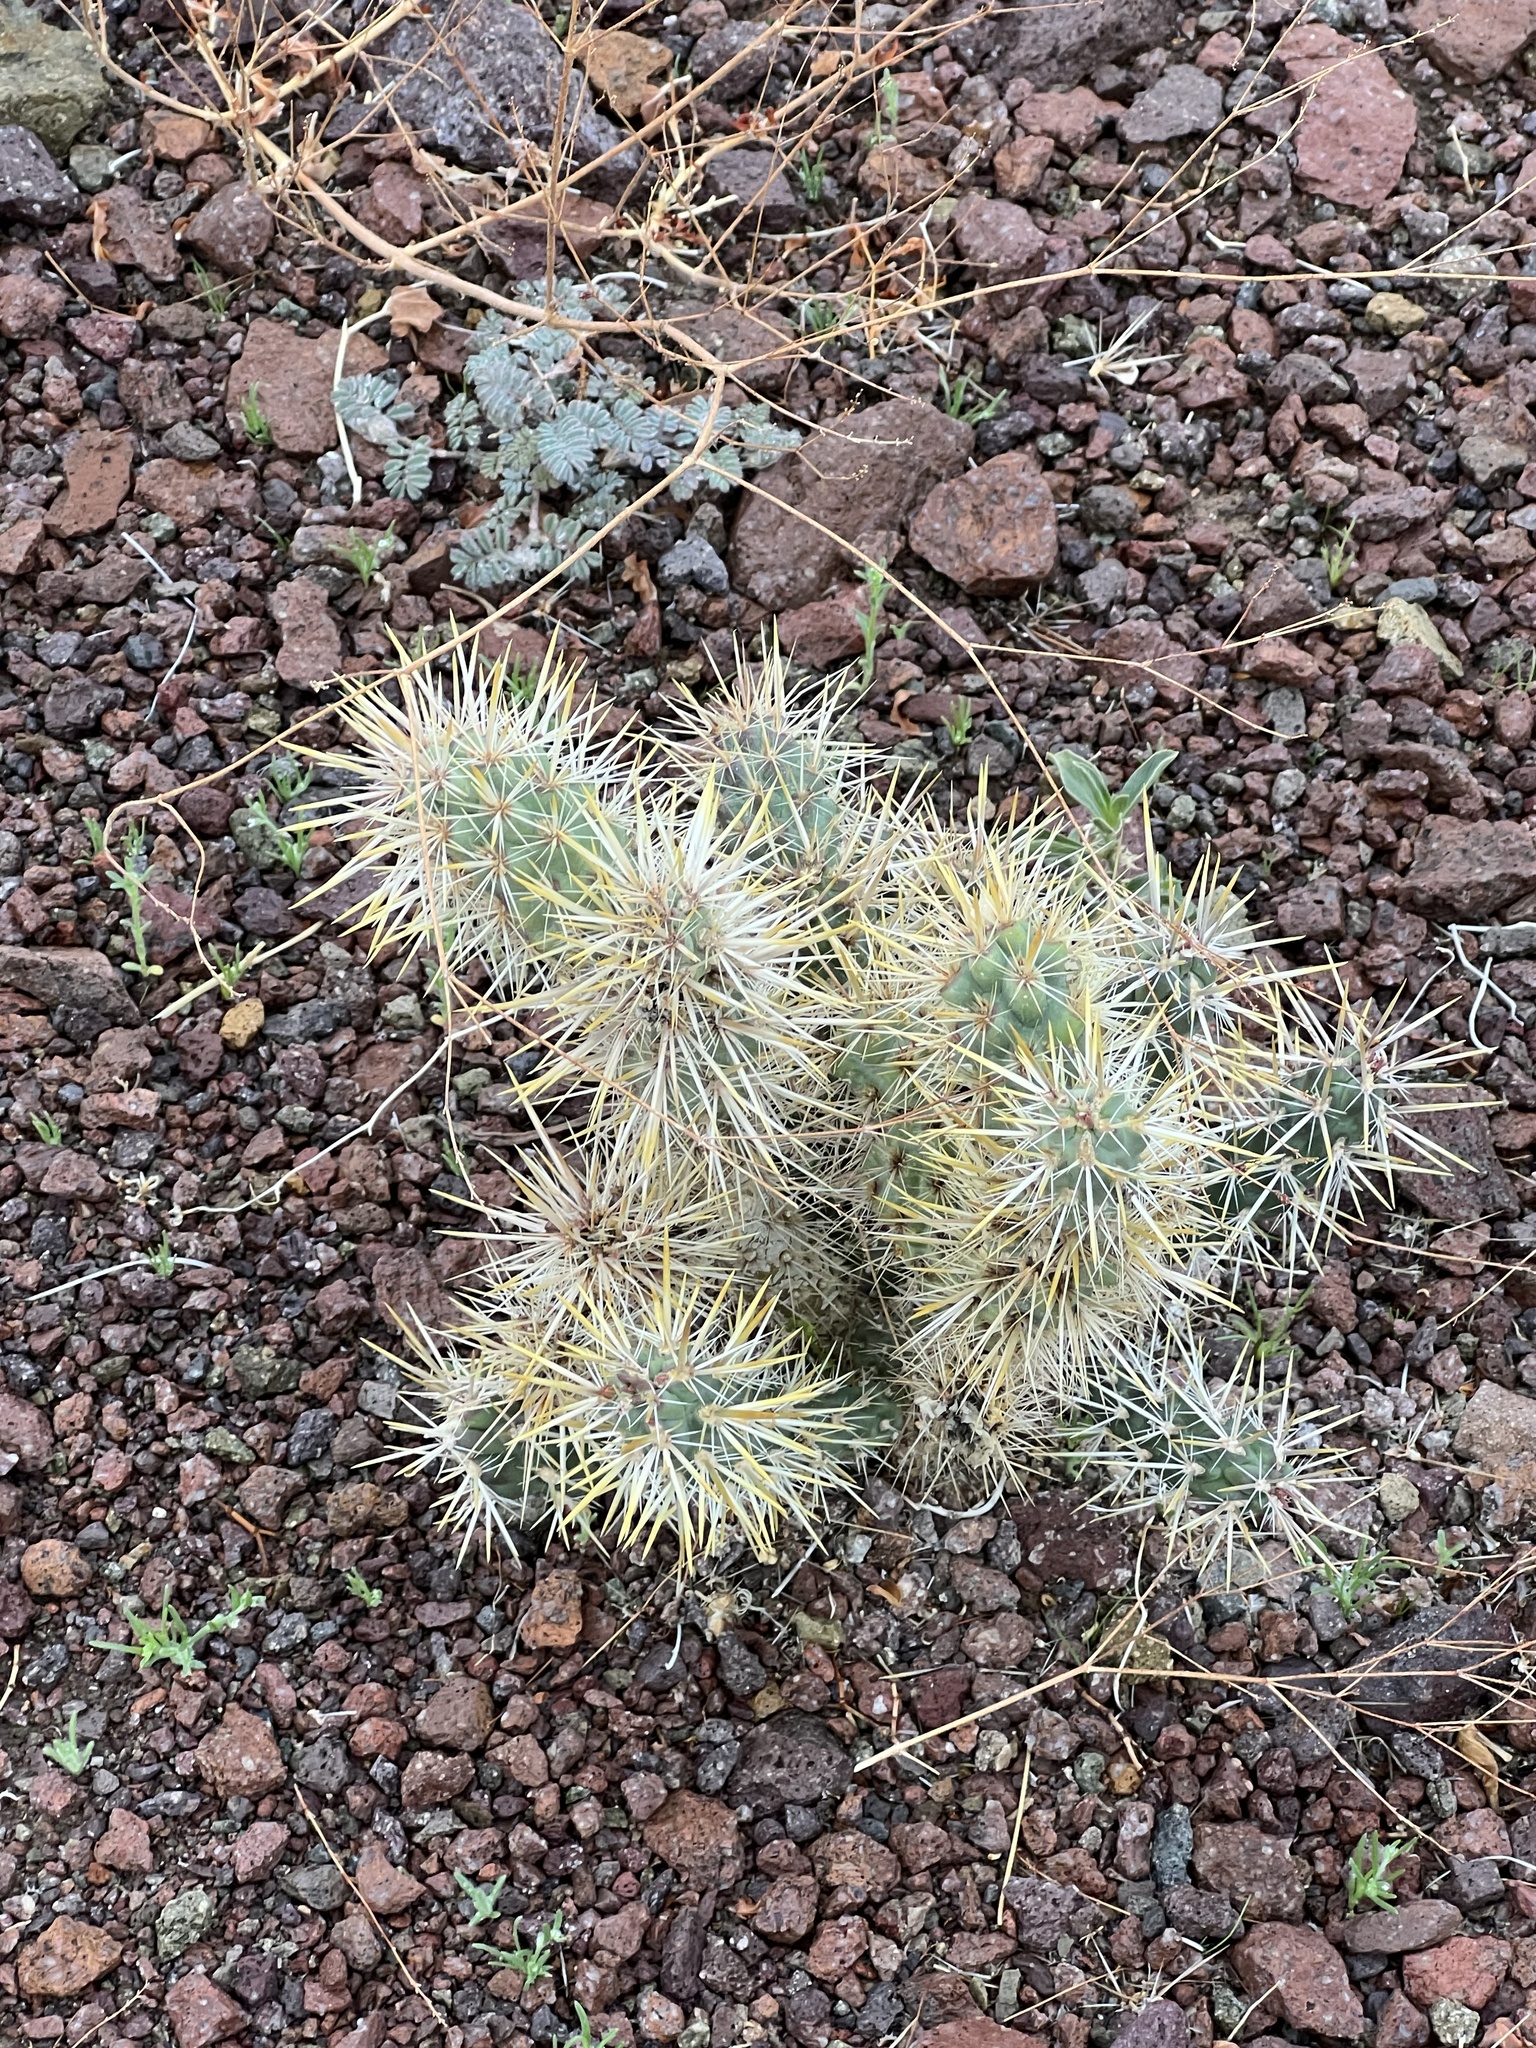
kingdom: Plantae
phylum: Tracheophyta
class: Magnoliopsida
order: Caryophyllales
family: Cactaceae
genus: Cylindropuntia
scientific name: Cylindropuntia echinocarpa
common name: Ground cholla
